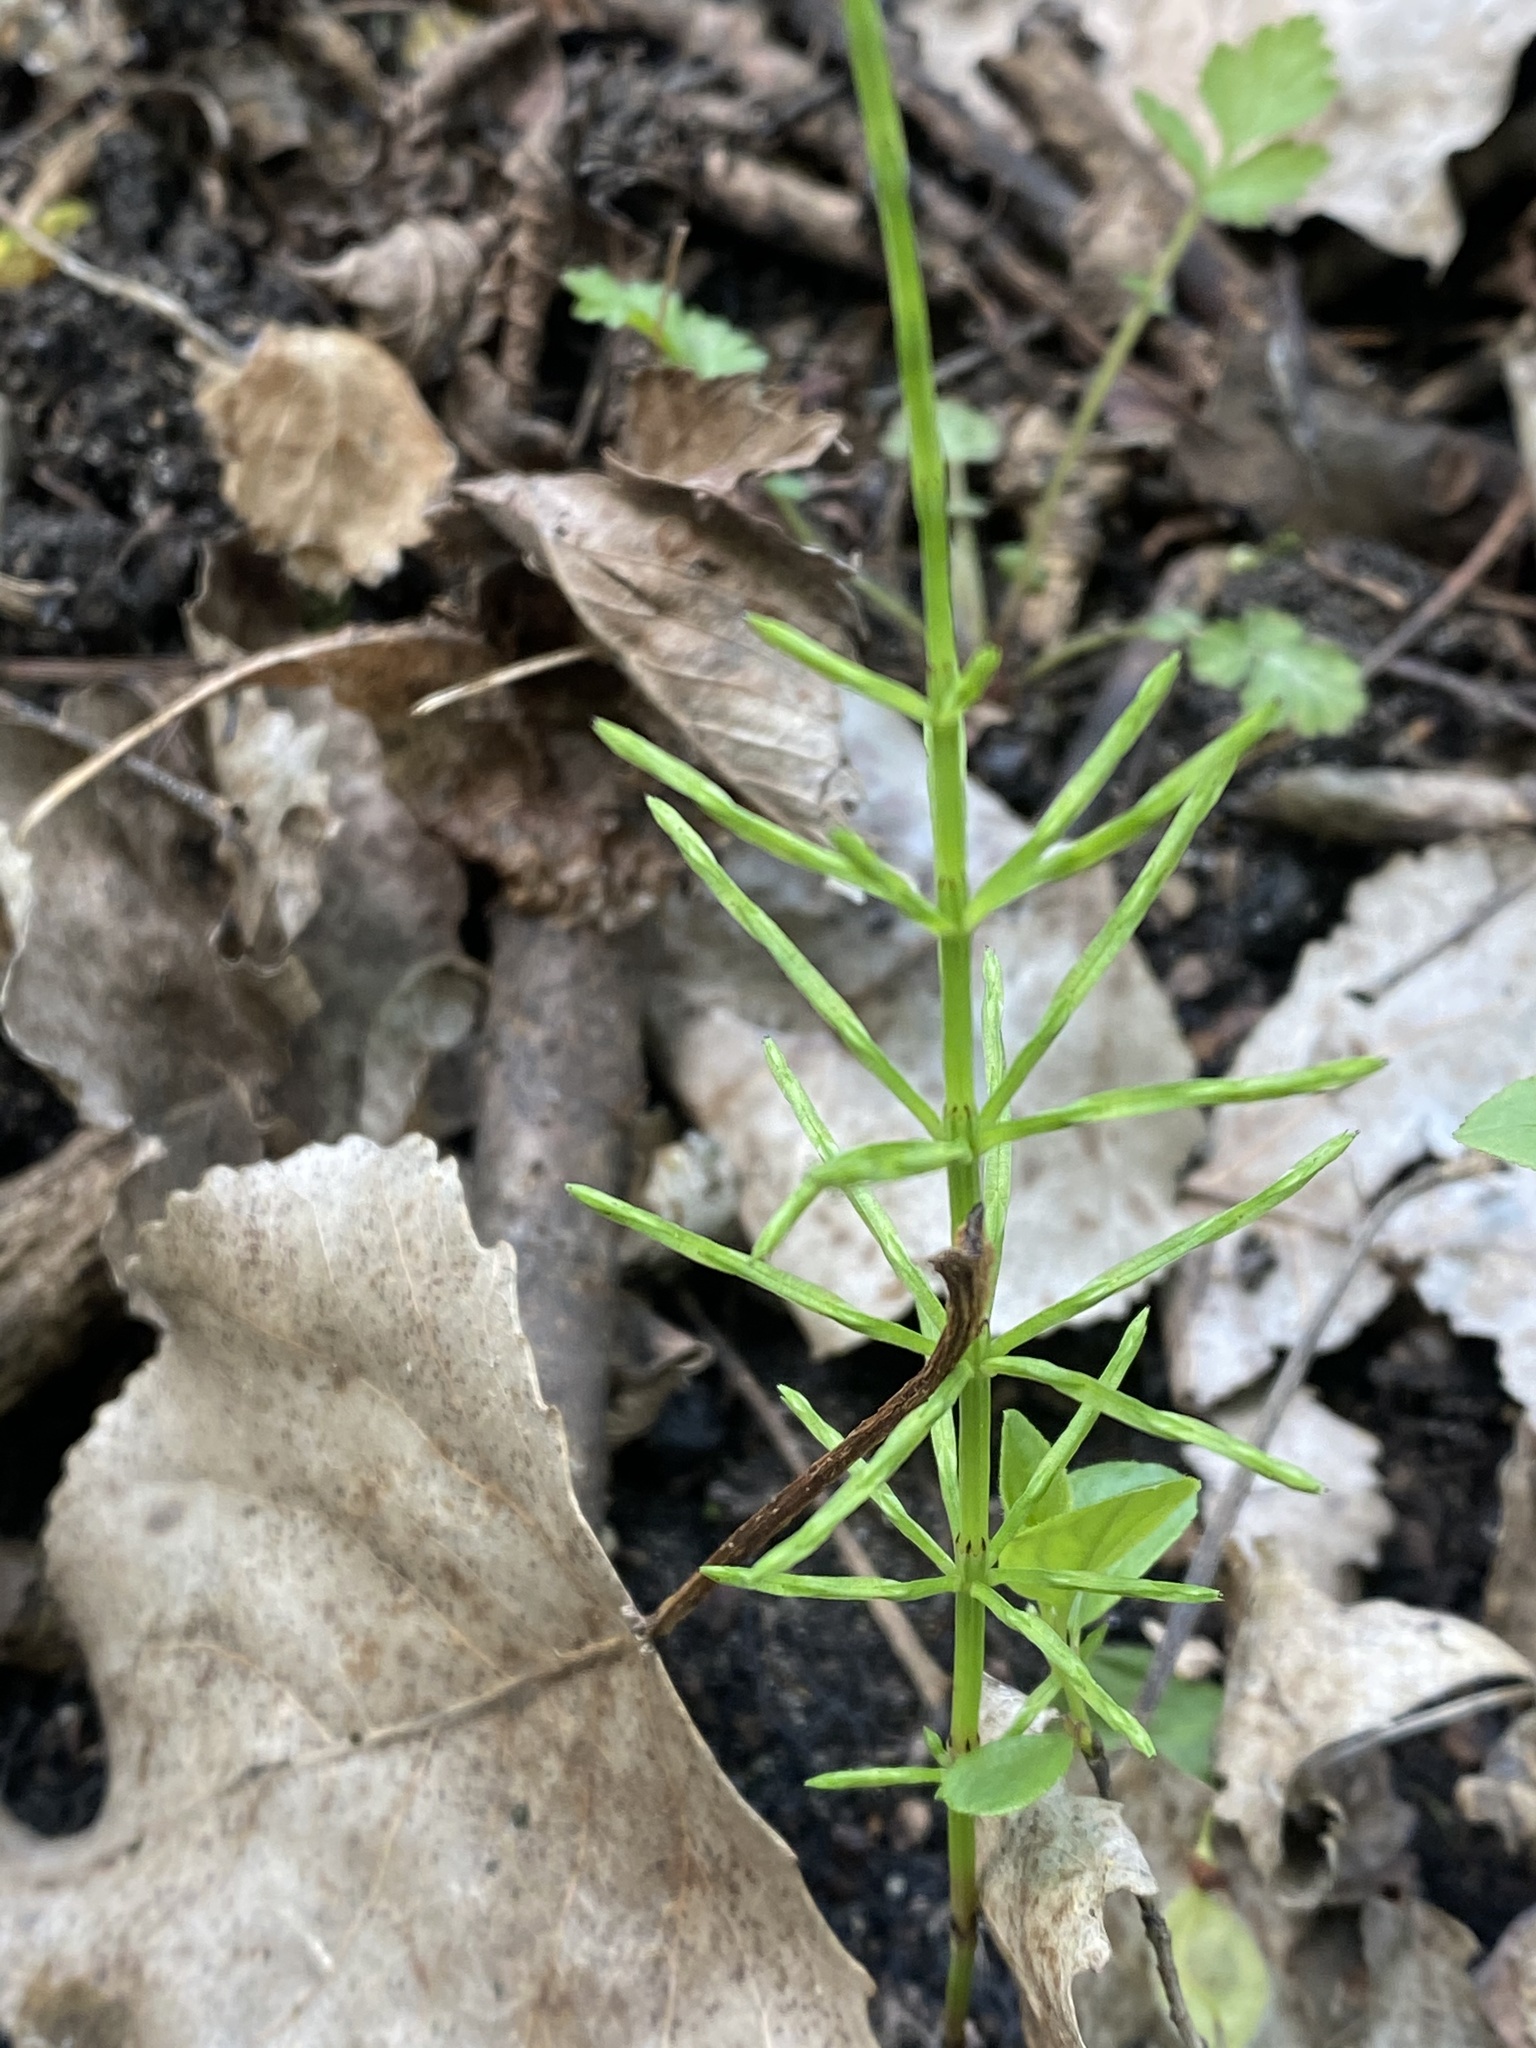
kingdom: Plantae
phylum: Tracheophyta
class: Polypodiopsida
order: Equisetales
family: Equisetaceae
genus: Equisetum
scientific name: Equisetum arvense
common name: Field horsetail
